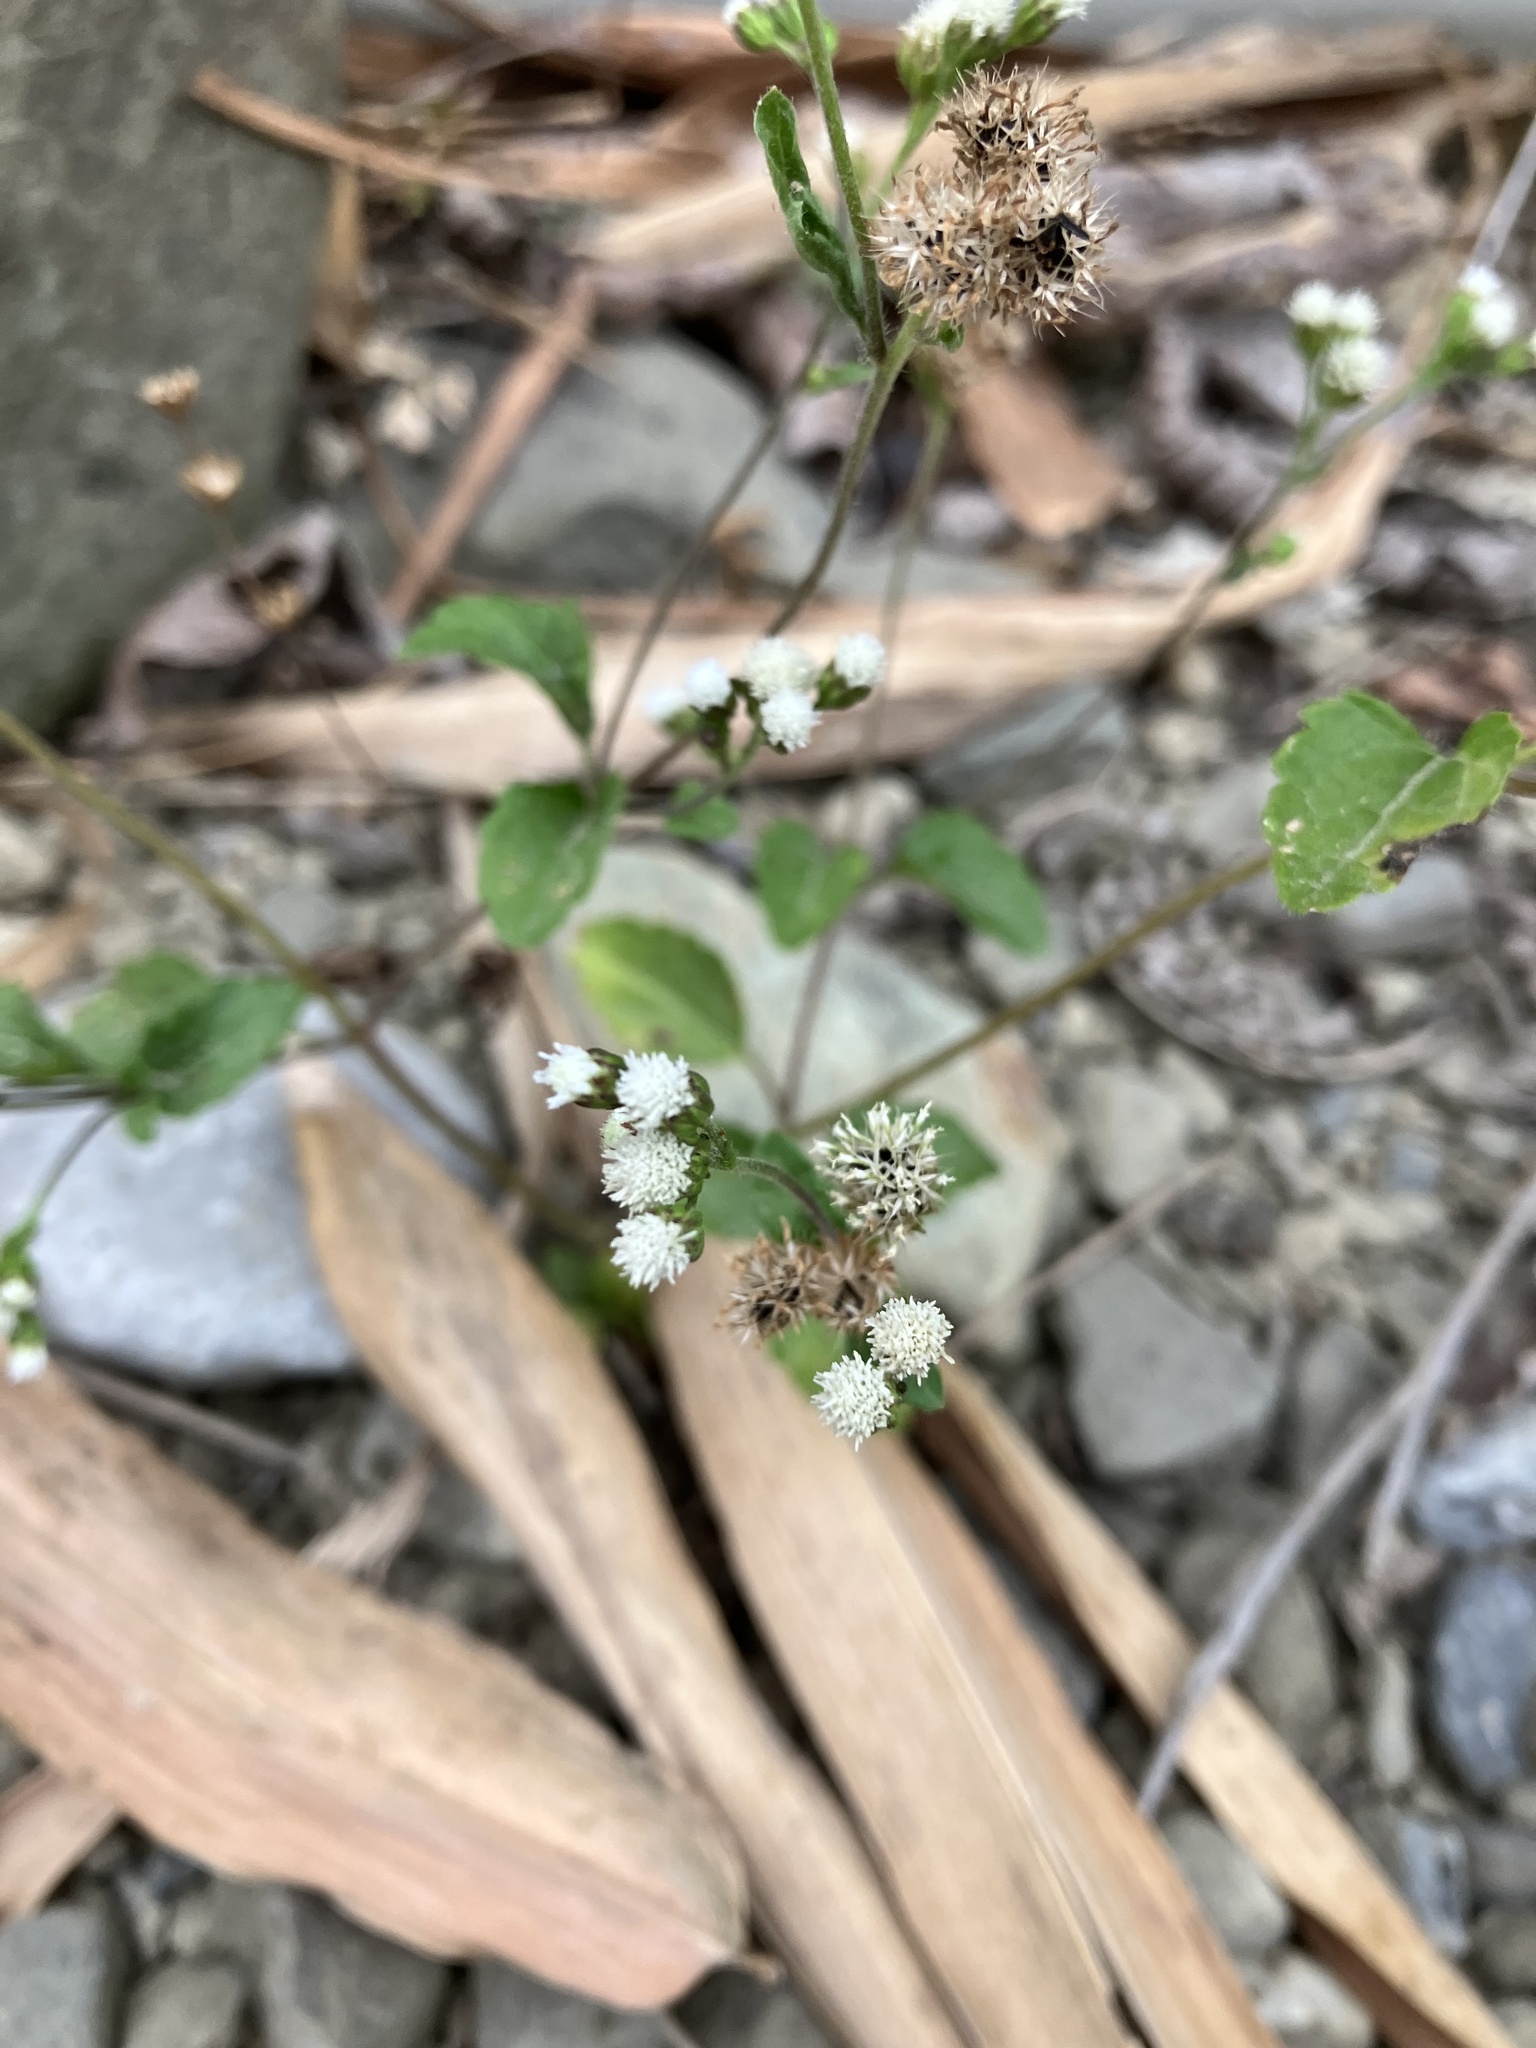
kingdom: Plantae
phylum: Tracheophyta
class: Magnoliopsida
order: Asterales
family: Asteraceae
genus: Ageratum
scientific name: Ageratum conyzoides
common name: Tropical whiteweed
